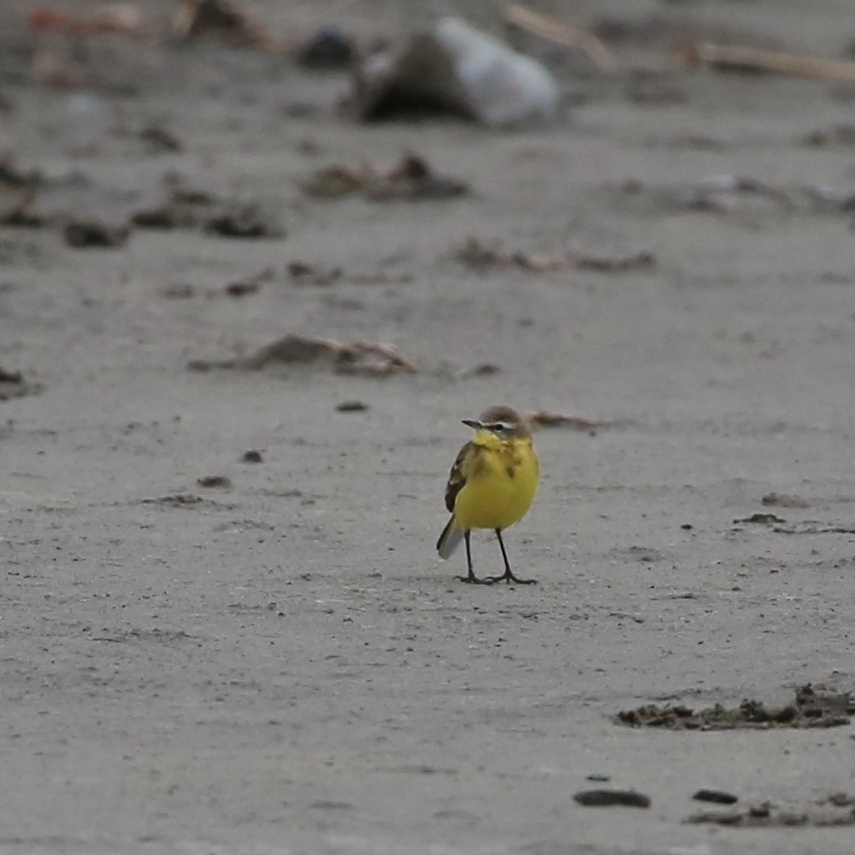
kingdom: Animalia
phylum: Chordata
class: Aves
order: Passeriformes
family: Motacillidae
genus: Motacilla
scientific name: Motacilla flava
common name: Western yellow wagtail
